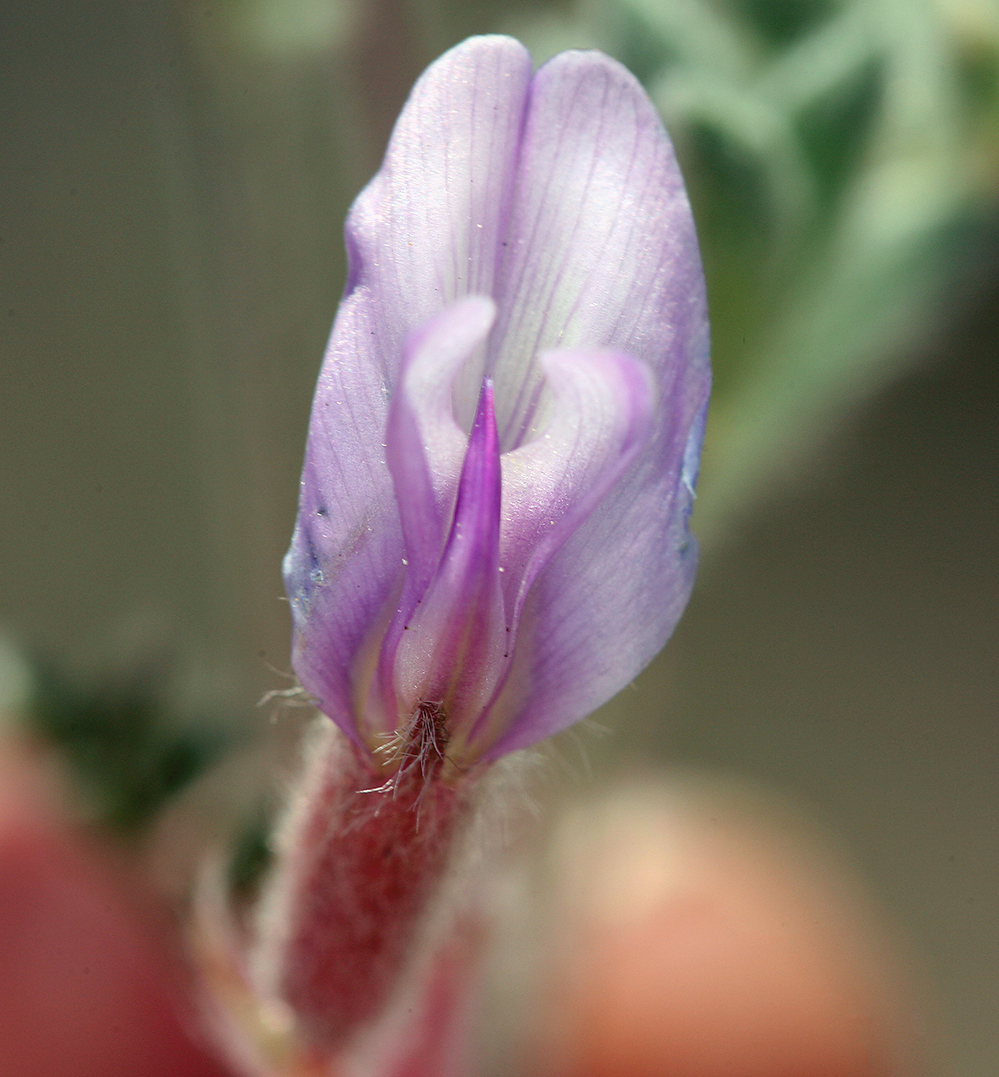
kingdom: Plantae
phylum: Tracheophyta
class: Magnoliopsida
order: Fabales
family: Fabaceae
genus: Astragalus
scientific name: Astragalus purshii
